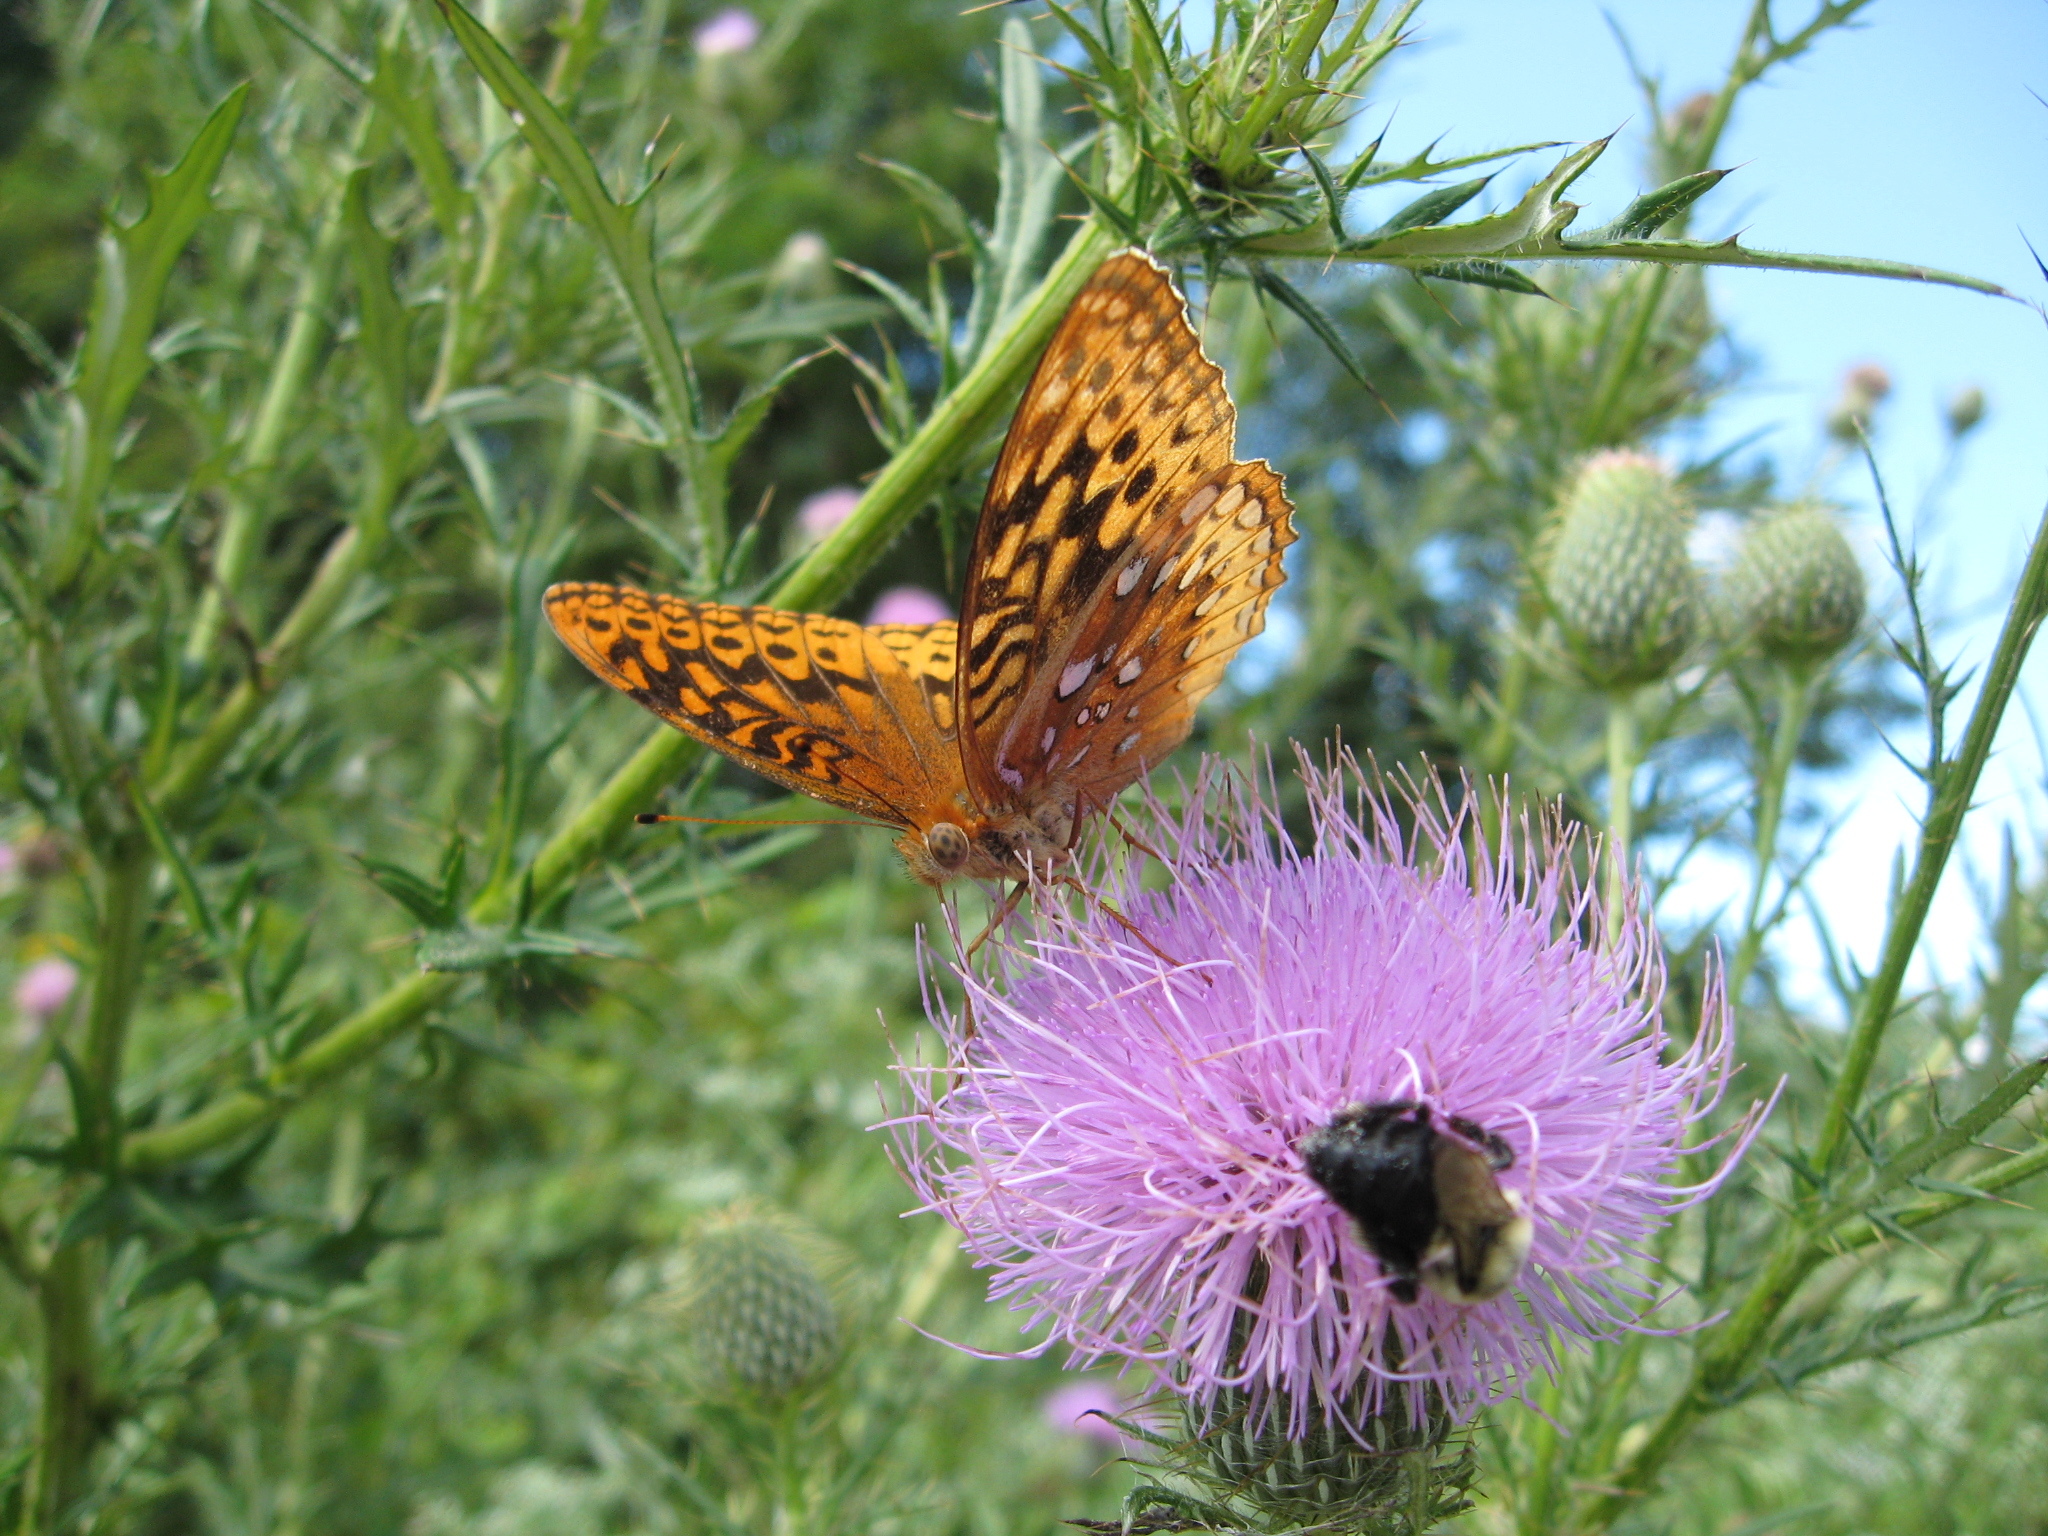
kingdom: Animalia
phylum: Arthropoda
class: Insecta
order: Lepidoptera
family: Nymphalidae
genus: Speyeria
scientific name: Speyeria cybele
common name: Great spangled fritillary
